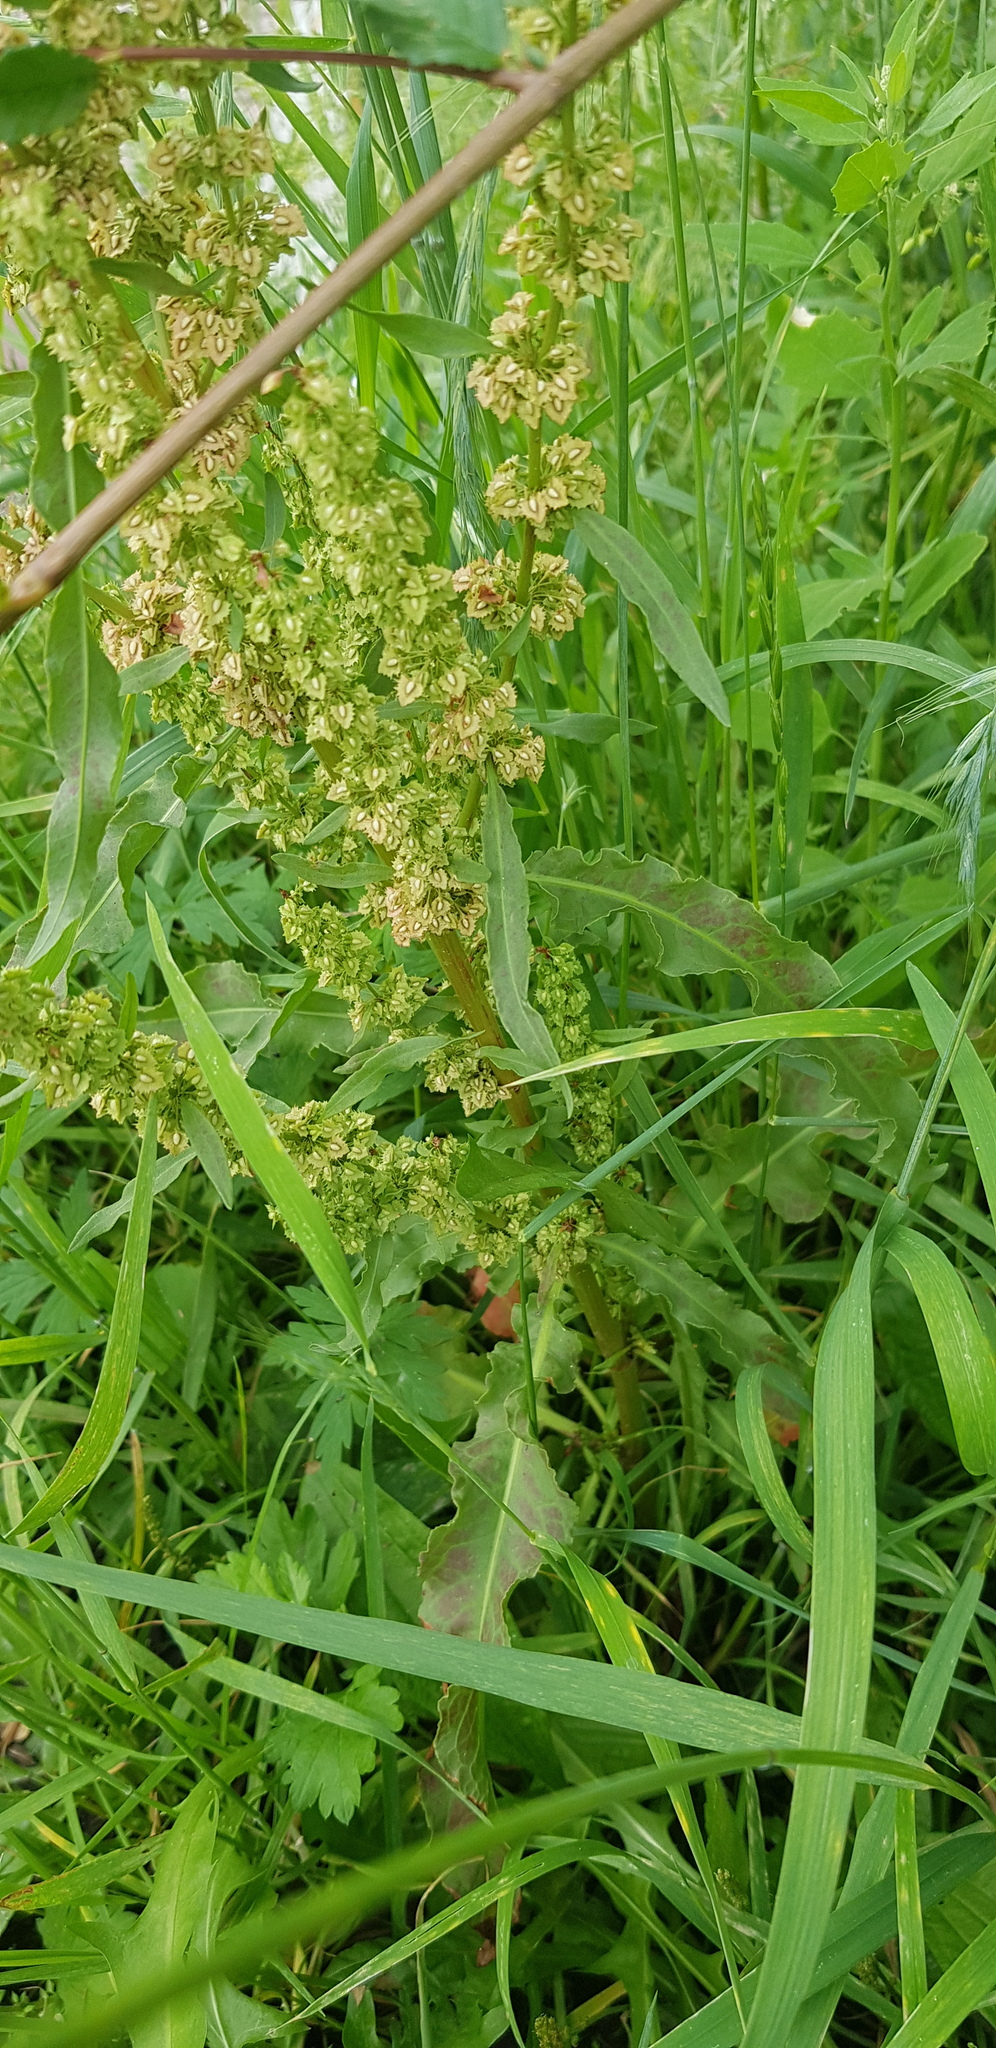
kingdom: Plantae
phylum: Tracheophyta
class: Magnoliopsida
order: Caryophyllales
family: Polygonaceae
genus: Rumex
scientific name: Rumex crispus
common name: Curled dock
